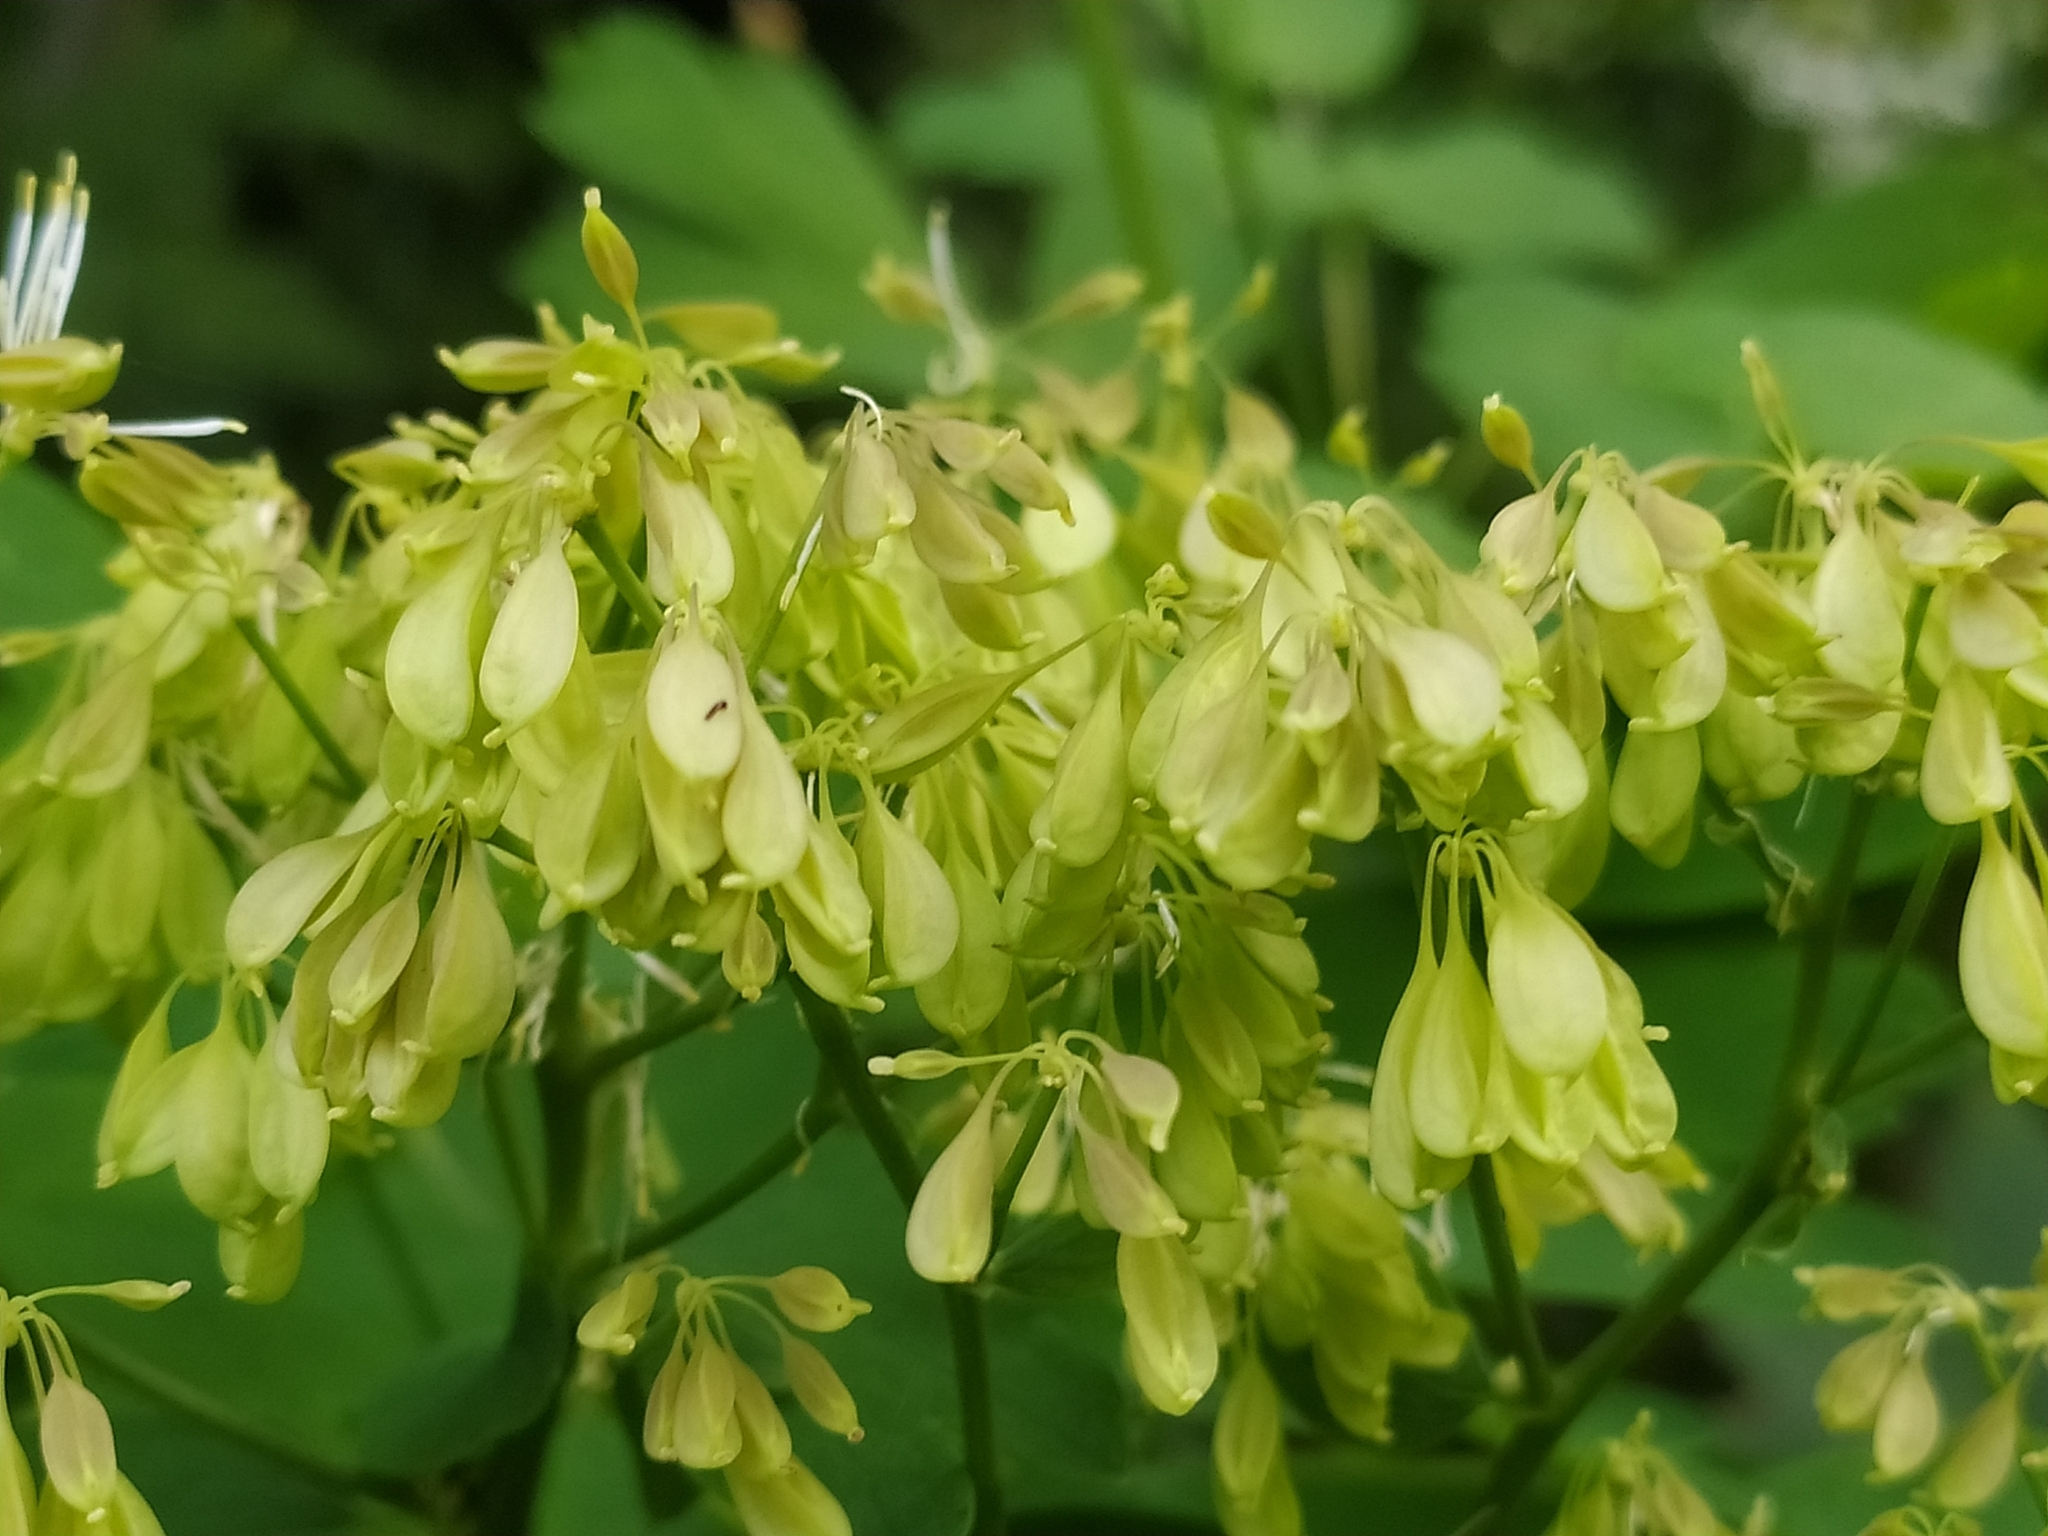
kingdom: Plantae
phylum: Tracheophyta
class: Magnoliopsida
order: Ranunculales
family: Ranunculaceae
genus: Thalictrum
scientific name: Thalictrum aquilegiifolium
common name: French meadow-rue
